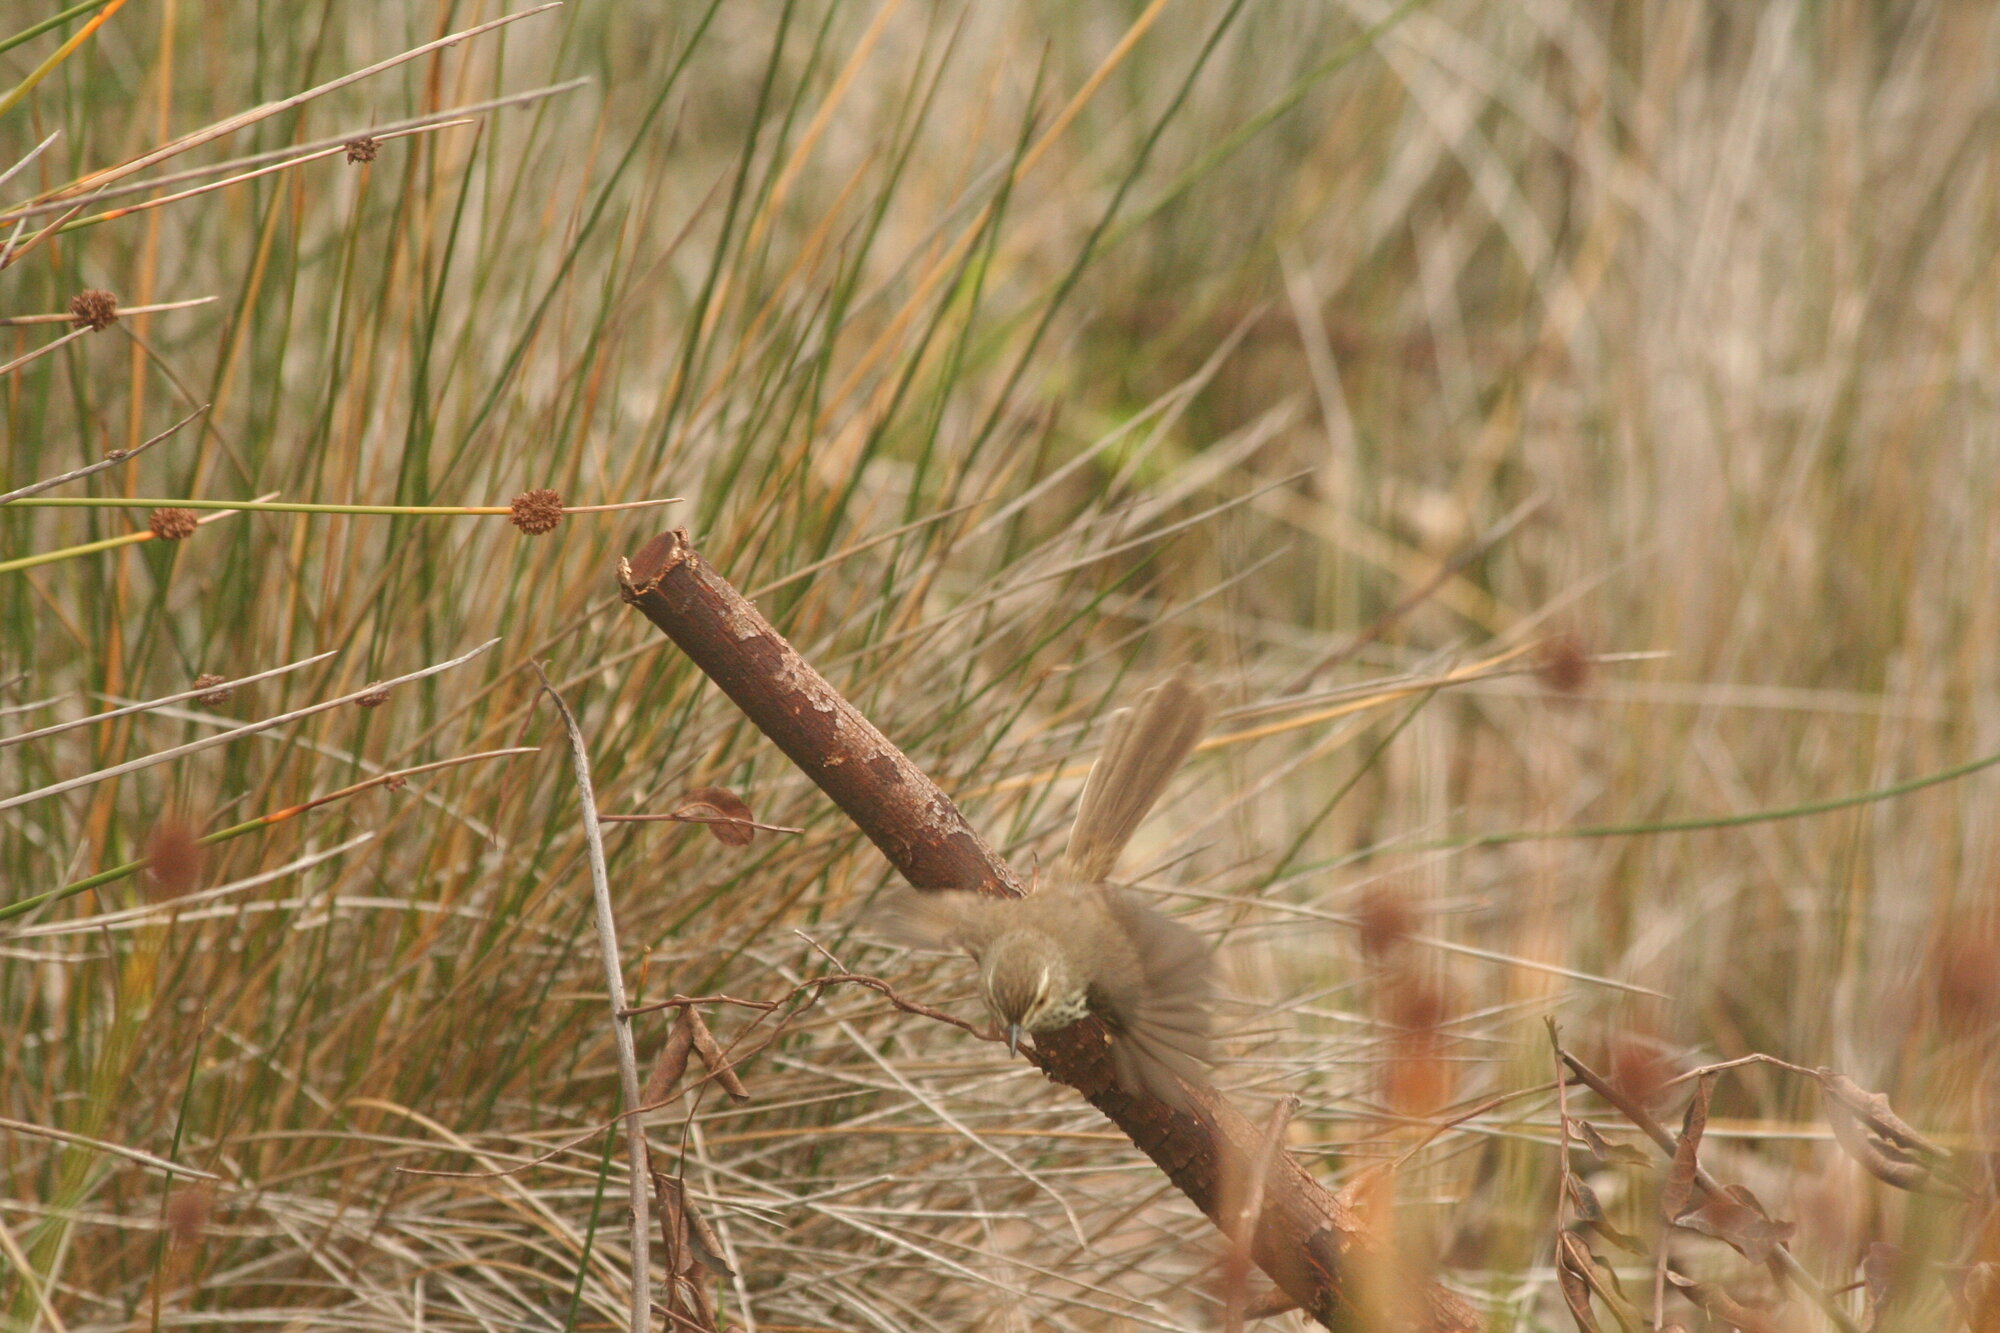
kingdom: Animalia
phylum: Chordata
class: Aves
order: Passeriformes
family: Cisticolidae
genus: Prinia
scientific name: Prinia maculosa
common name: Karoo prinia
